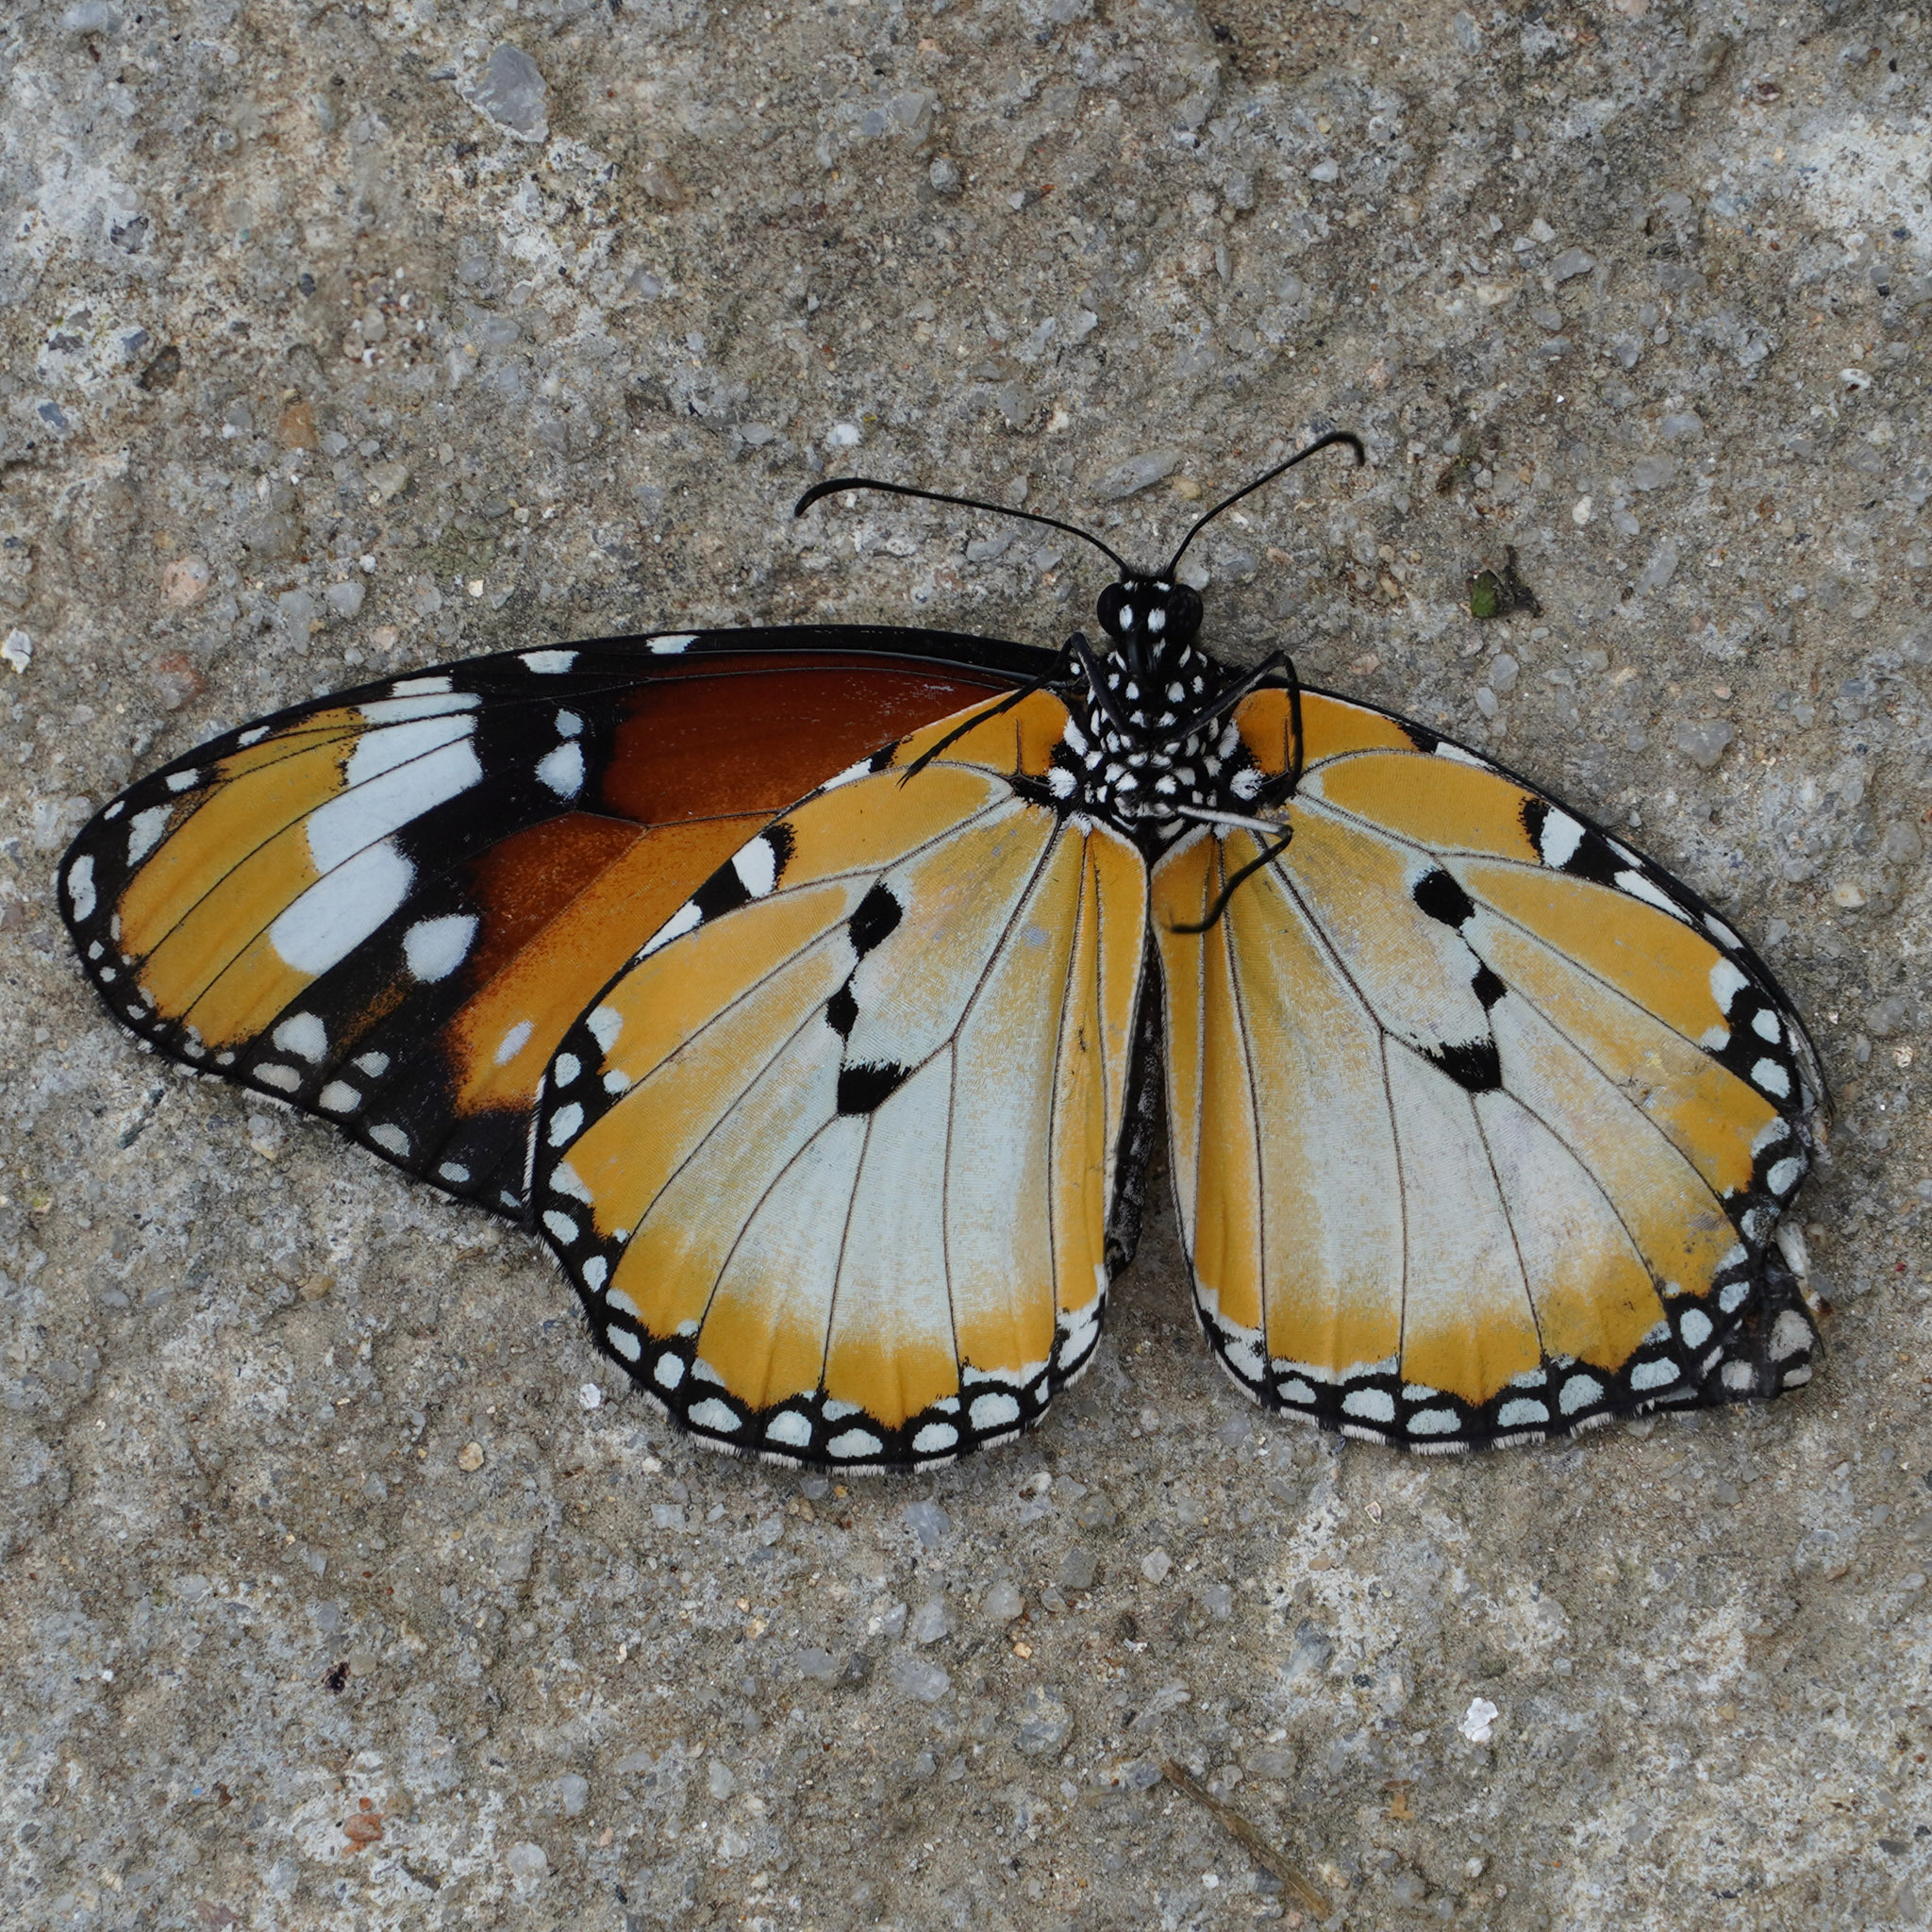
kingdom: Animalia
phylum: Arthropoda
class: Insecta
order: Lepidoptera
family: Nymphalidae
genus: Danaus
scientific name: Danaus chrysippus
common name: Plain tiger
